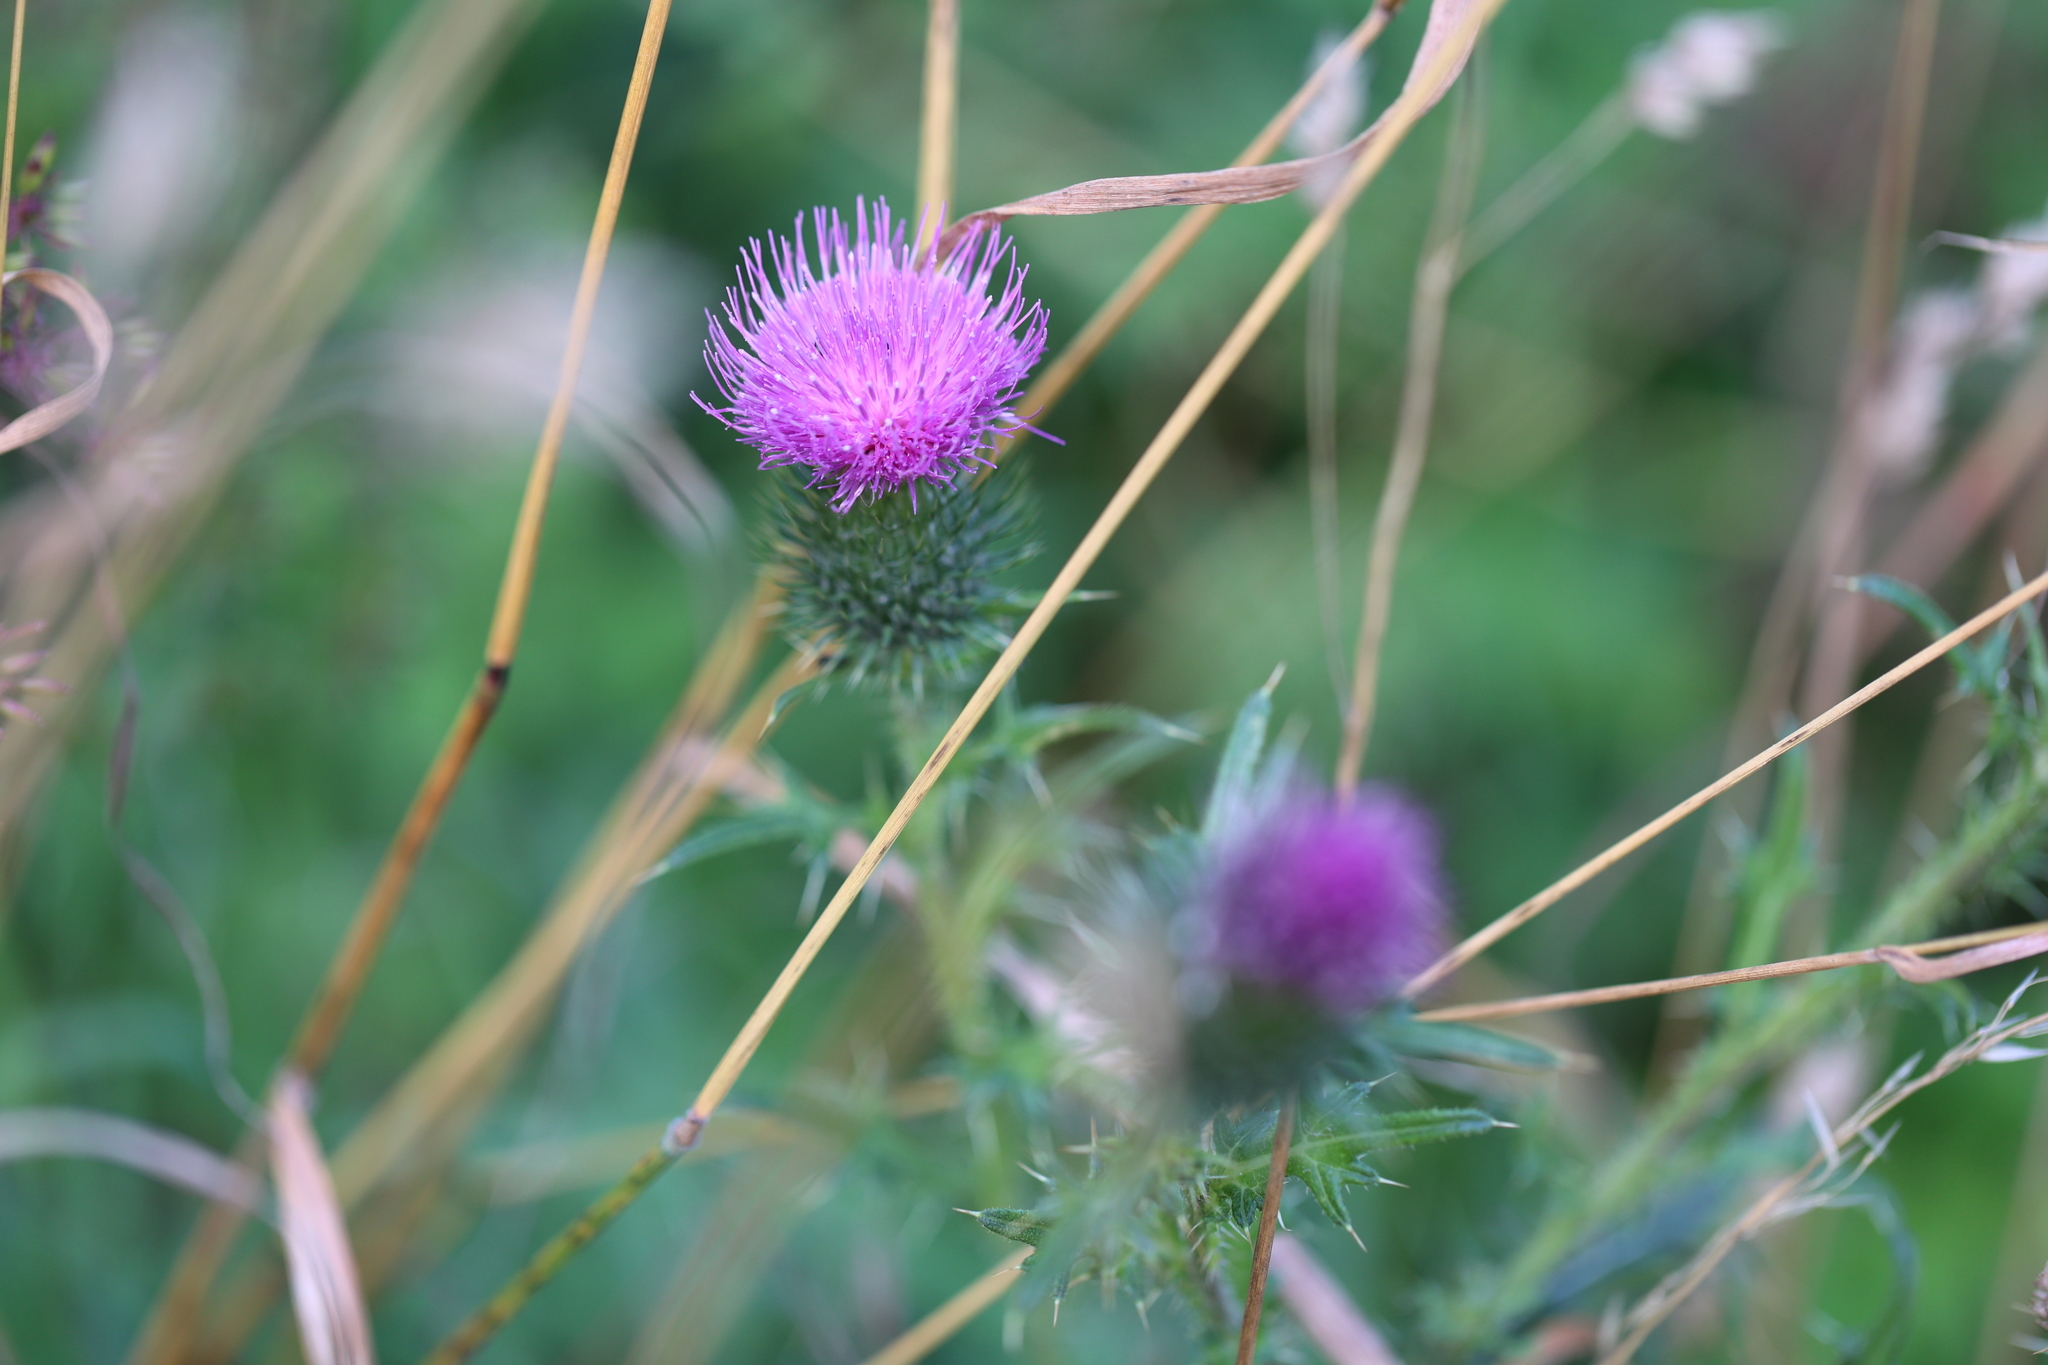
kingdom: Plantae
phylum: Tracheophyta
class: Magnoliopsida
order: Asterales
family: Asteraceae
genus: Cirsium
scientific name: Cirsium vulgare
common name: Bull thistle
